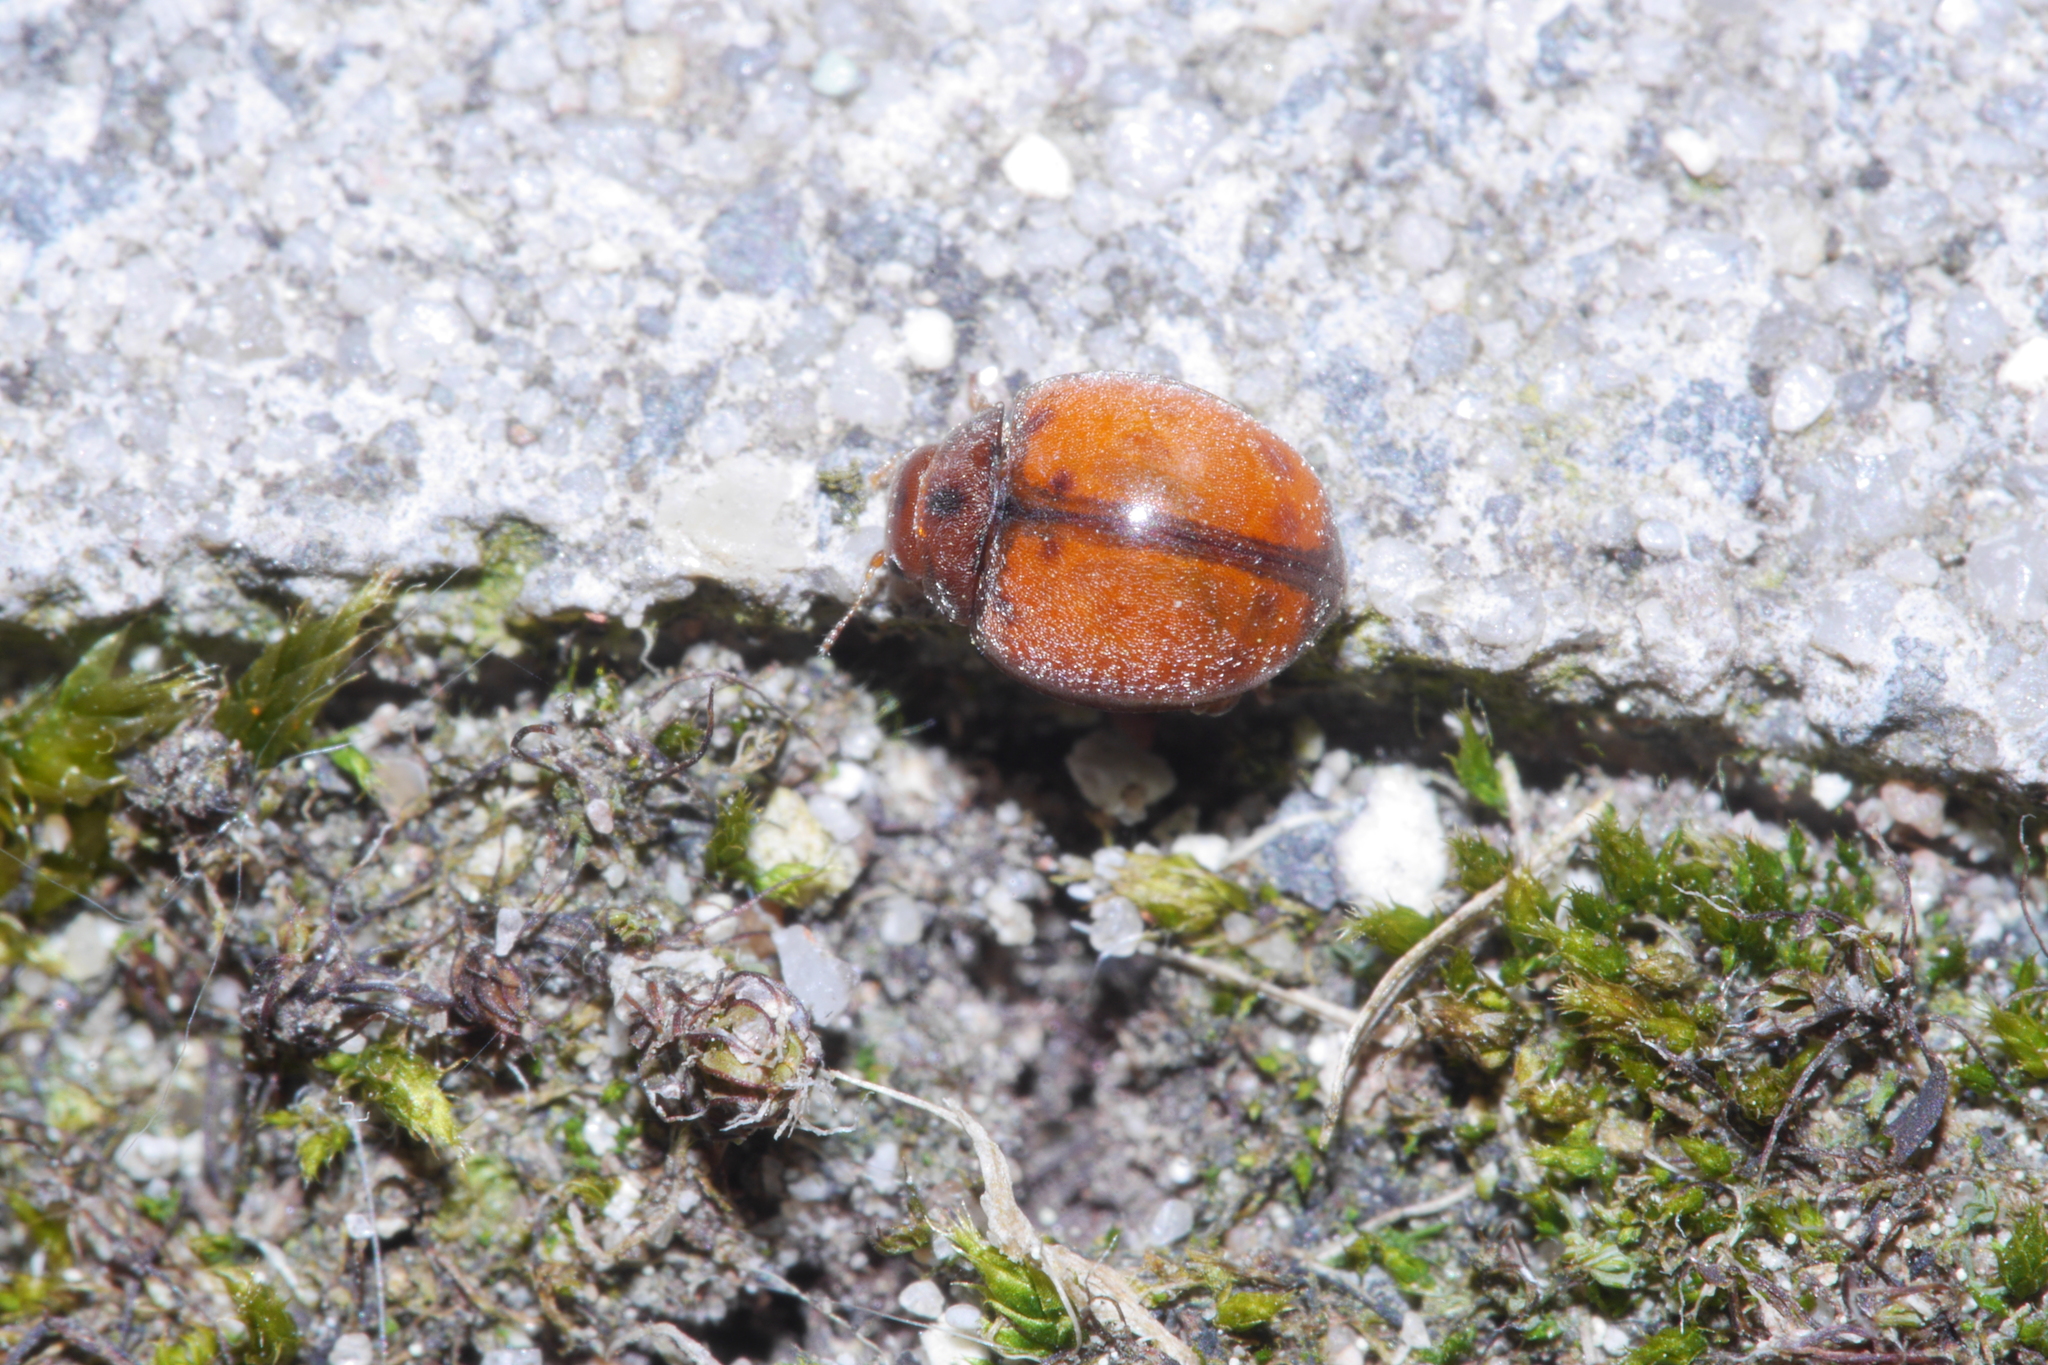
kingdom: Animalia
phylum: Arthropoda
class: Insecta
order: Coleoptera
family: Coccinellidae
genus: Subcoccinella
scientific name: Subcoccinella vigintiquatuorpunctata
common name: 24-spot ladybird
